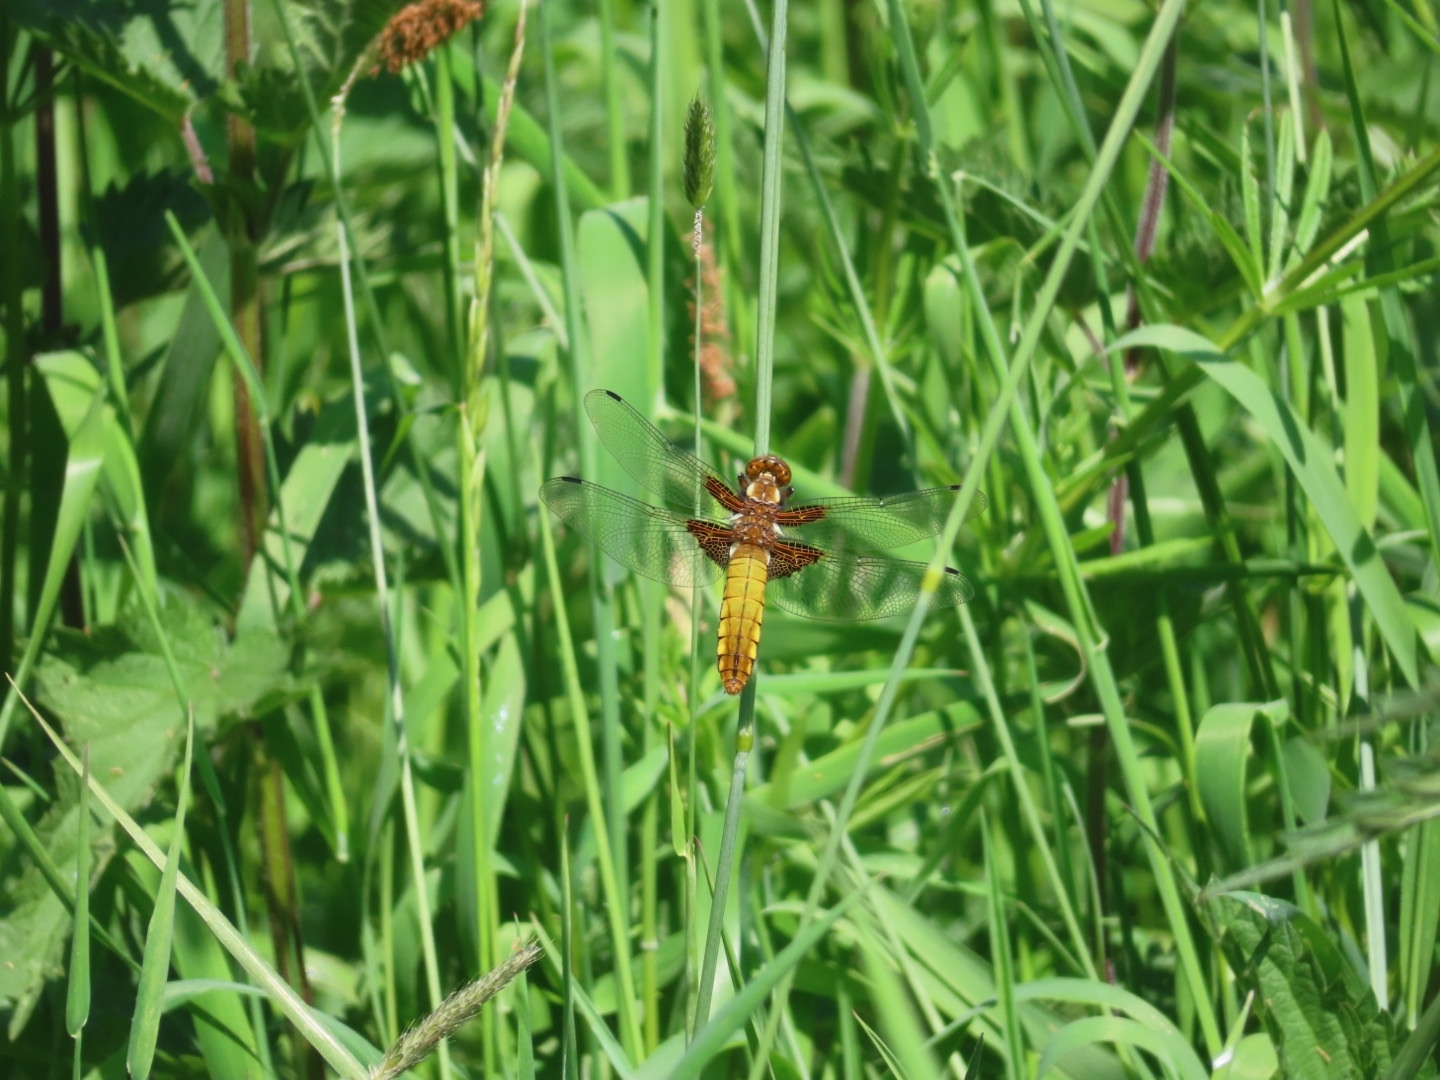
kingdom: Animalia
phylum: Arthropoda
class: Insecta
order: Odonata
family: Libellulidae
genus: Libellula
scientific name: Libellula depressa
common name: Broad-bodied chaser
